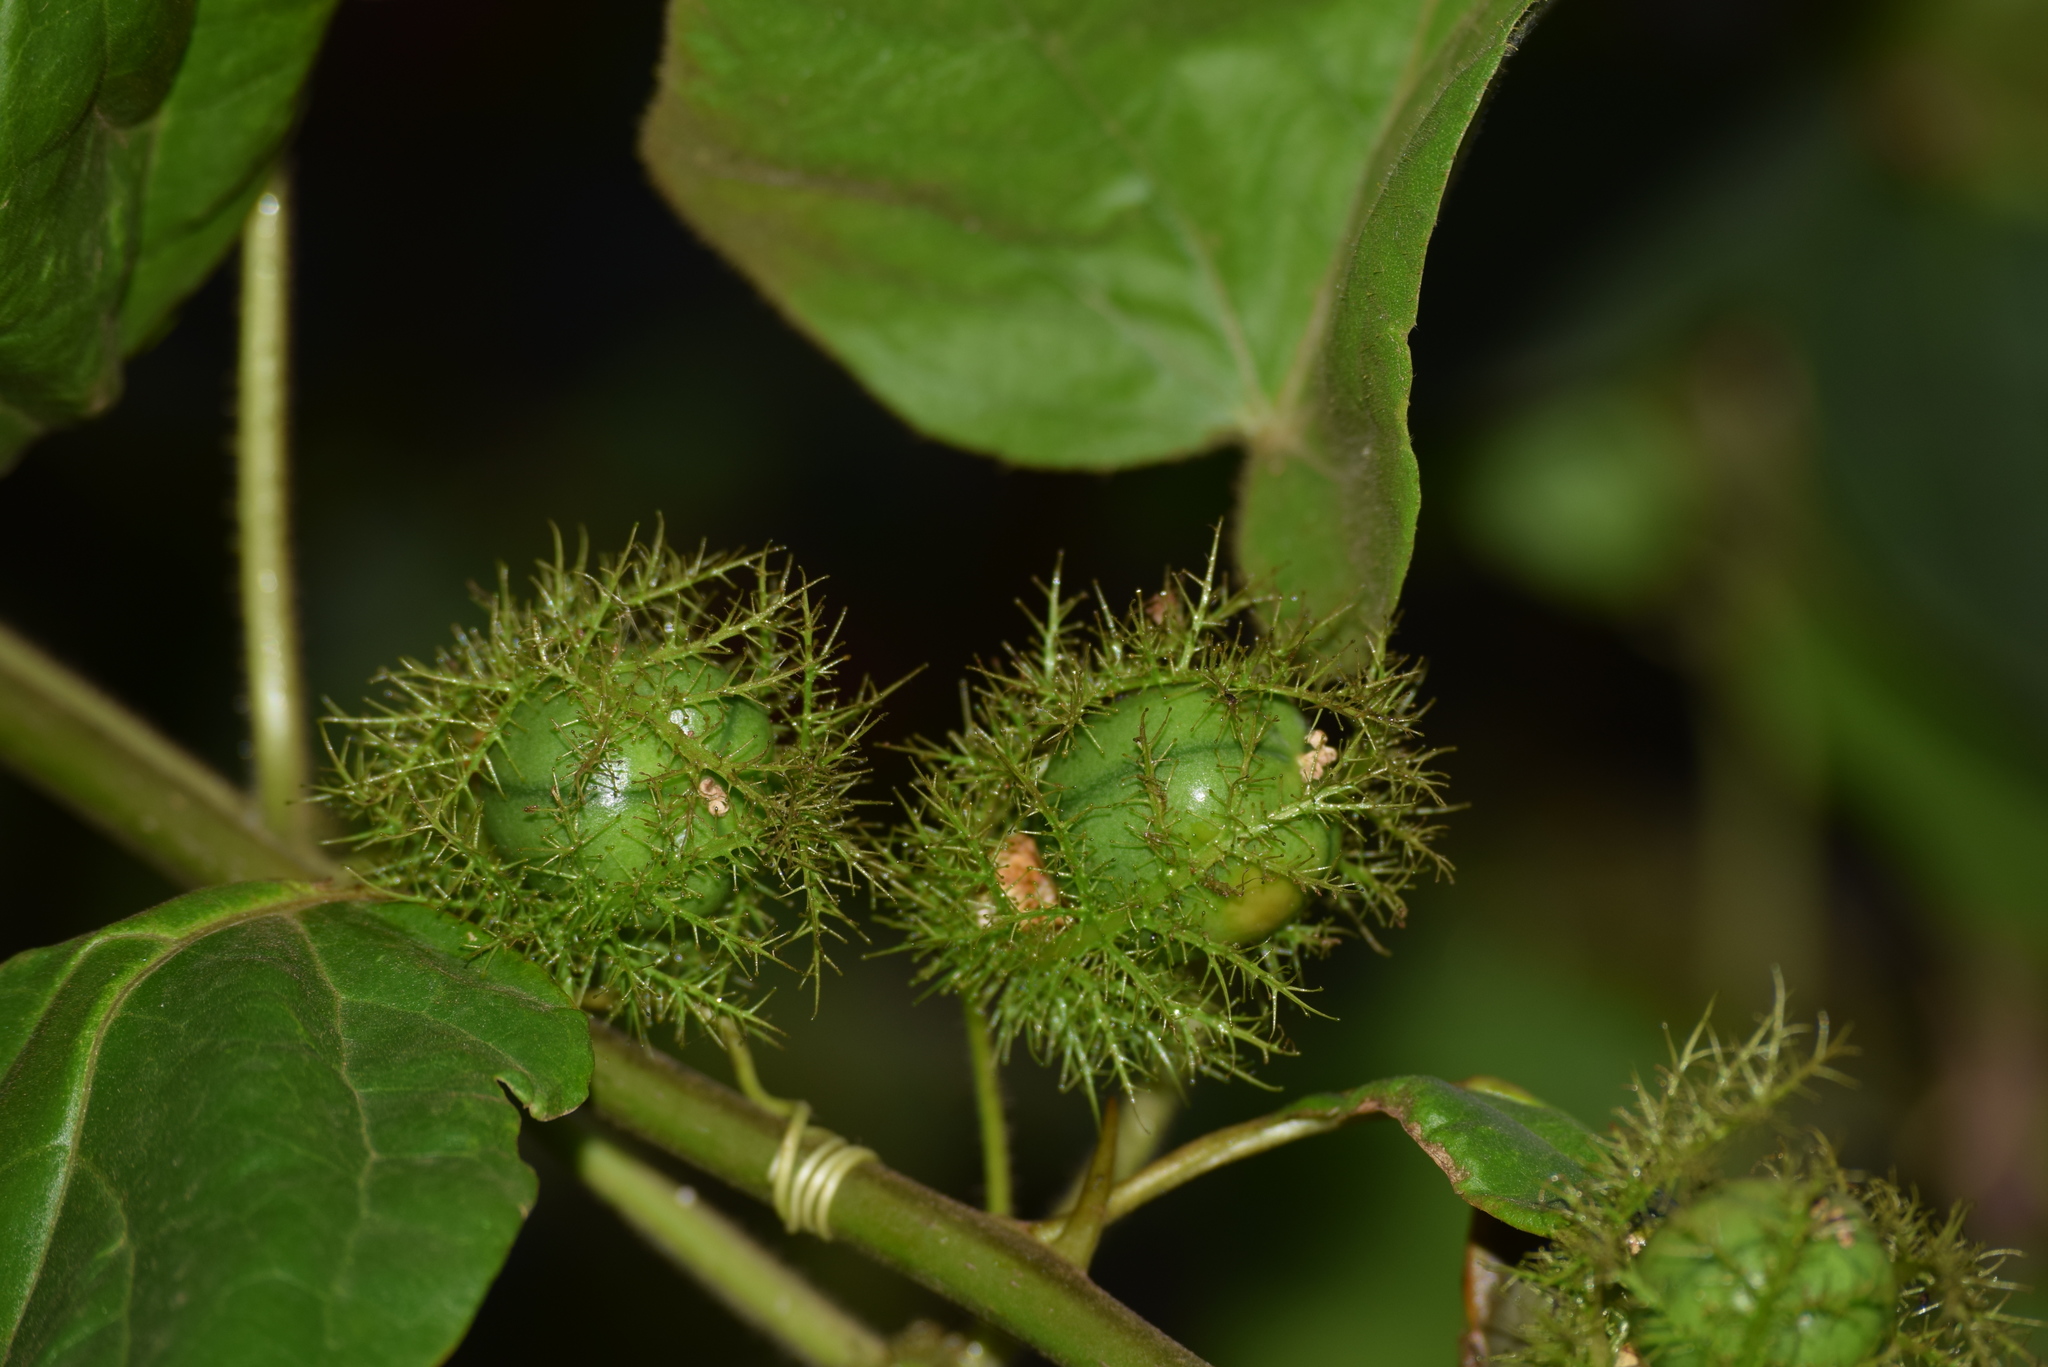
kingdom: Plantae
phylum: Tracheophyta
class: Magnoliopsida
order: Malpighiales
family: Passifloraceae
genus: Passiflora
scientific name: Passiflora foetida
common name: Fetid passionflower
